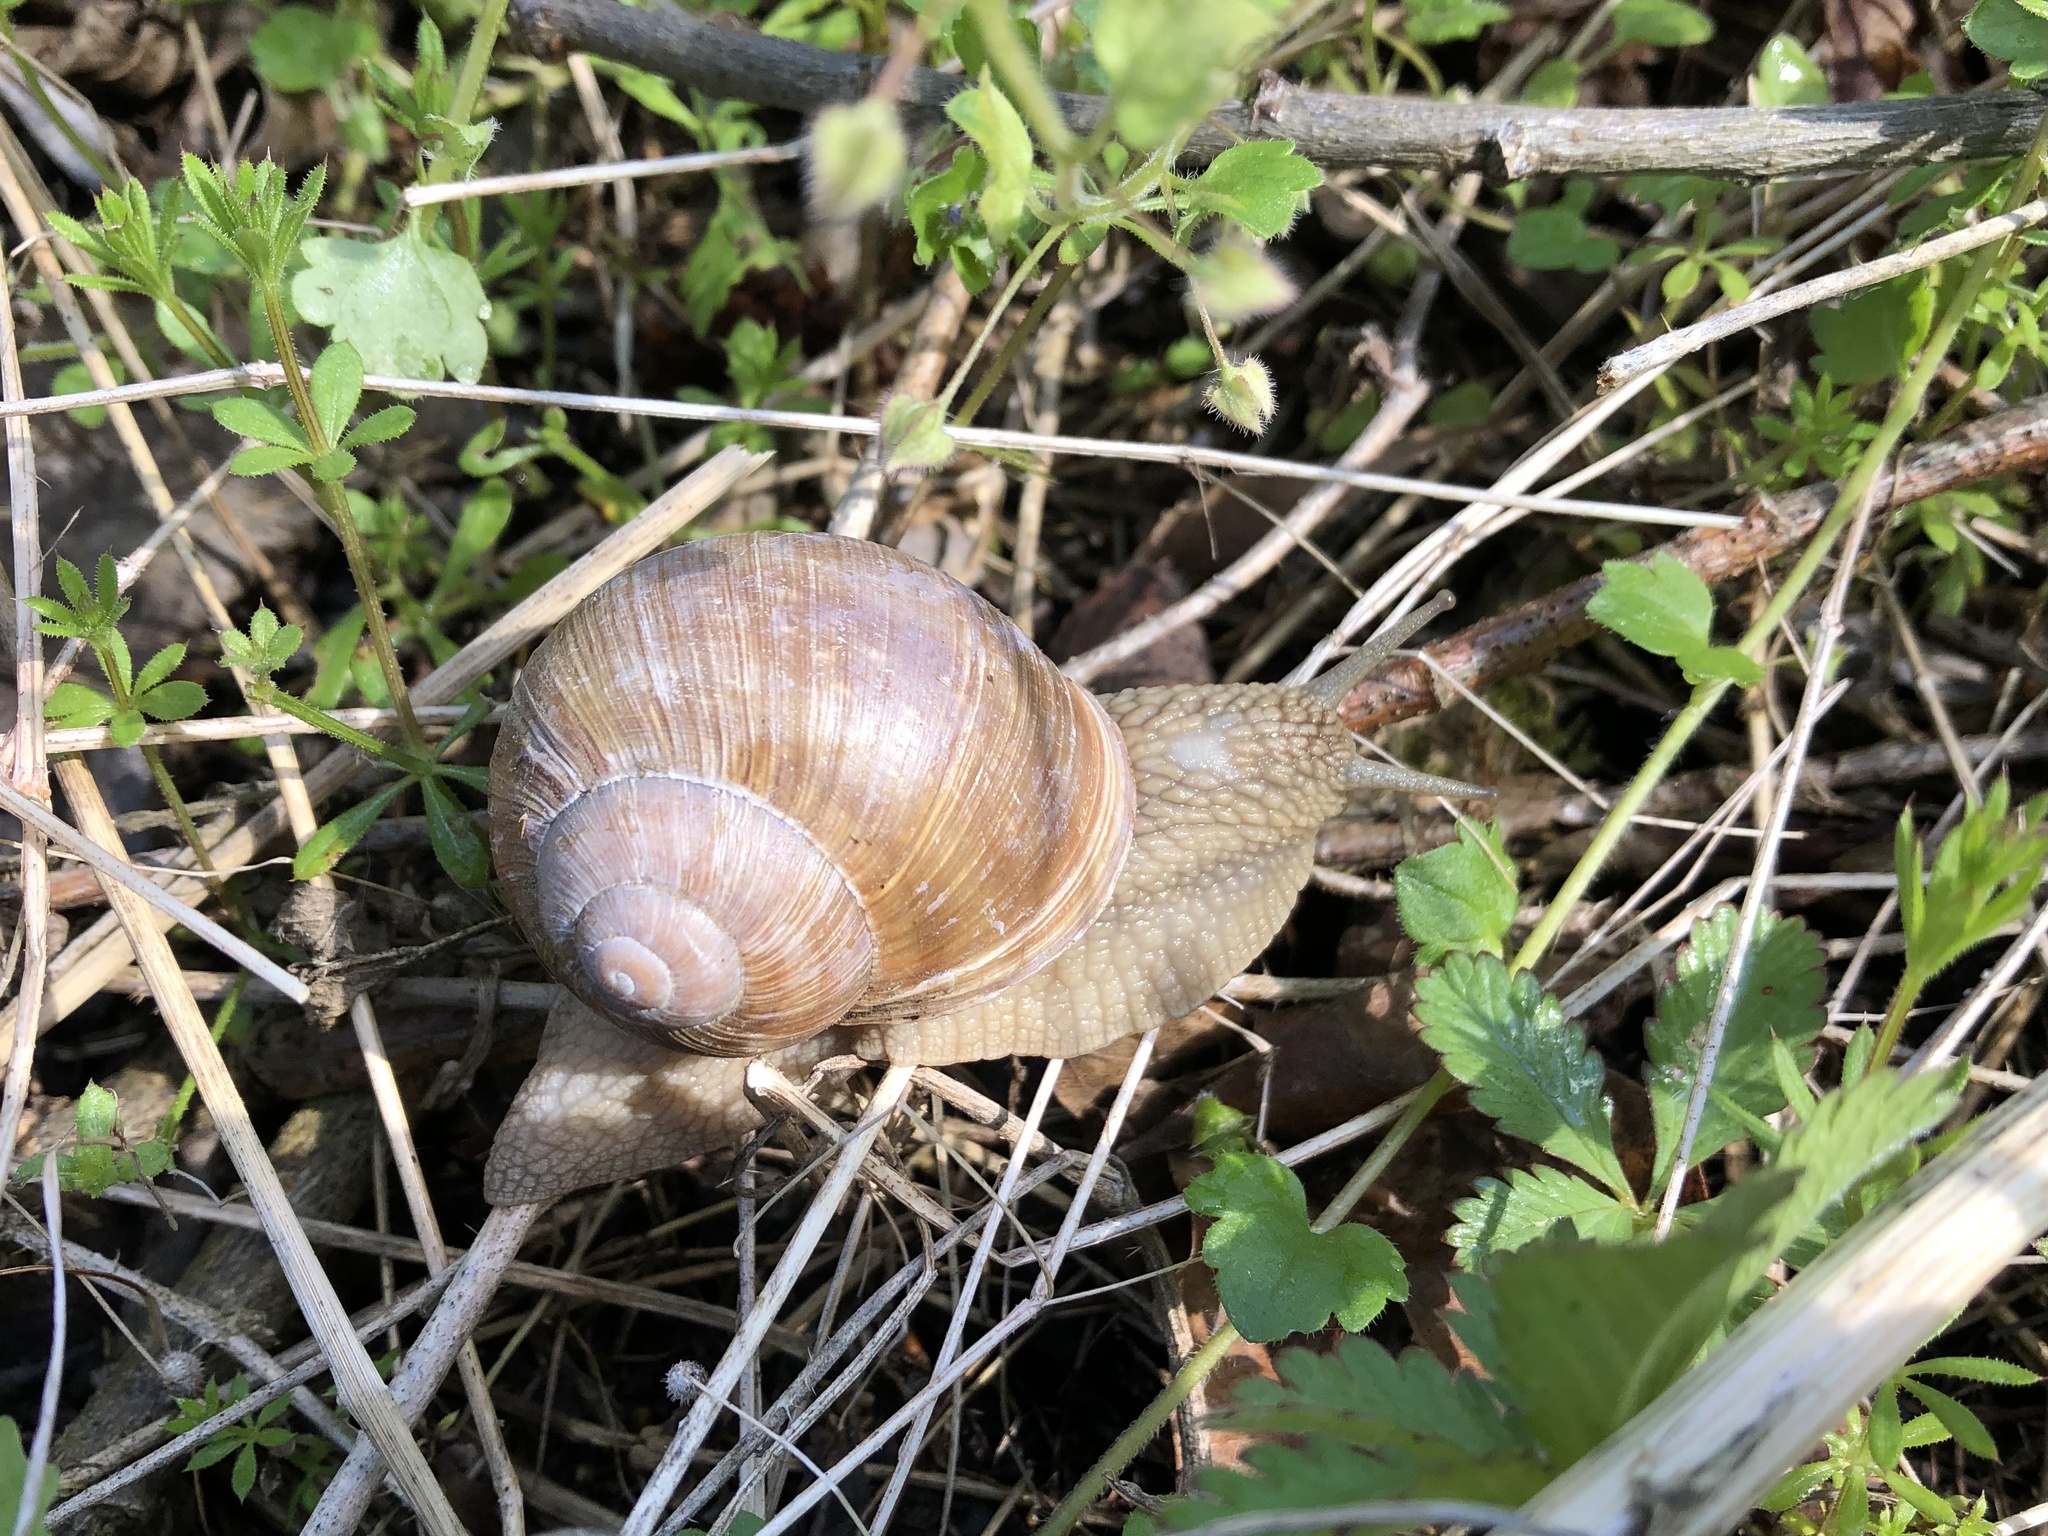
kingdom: Animalia
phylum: Mollusca
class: Gastropoda
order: Stylommatophora
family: Helicidae
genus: Helix
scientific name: Helix pomatia
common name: Roman snail
